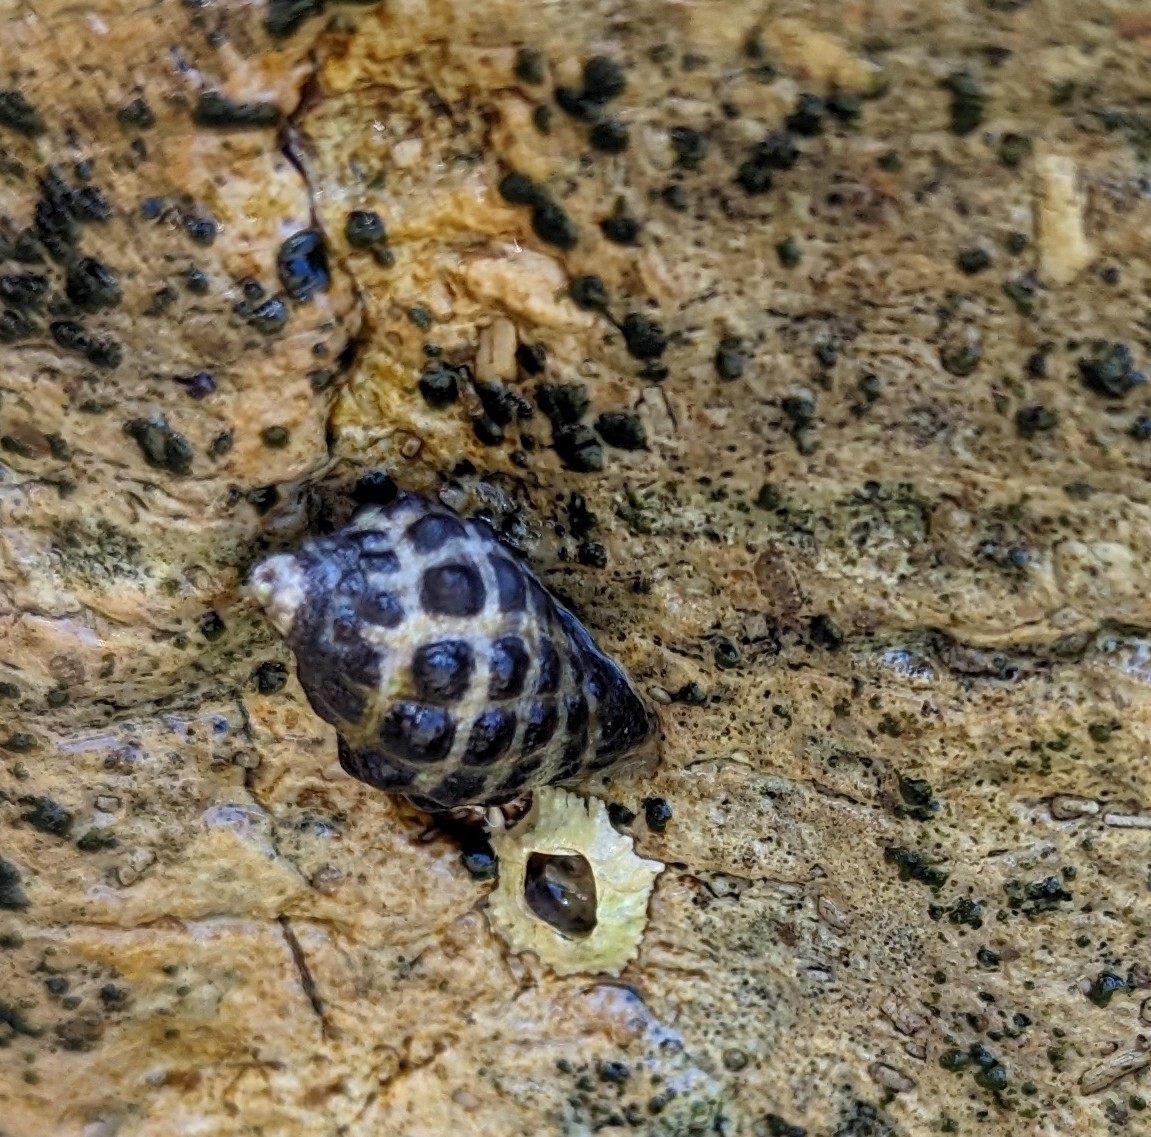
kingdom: Animalia
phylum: Mollusca
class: Gastropoda
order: Neogastropoda
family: Muricidae
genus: Tenguella
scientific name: Tenguella marginalba
